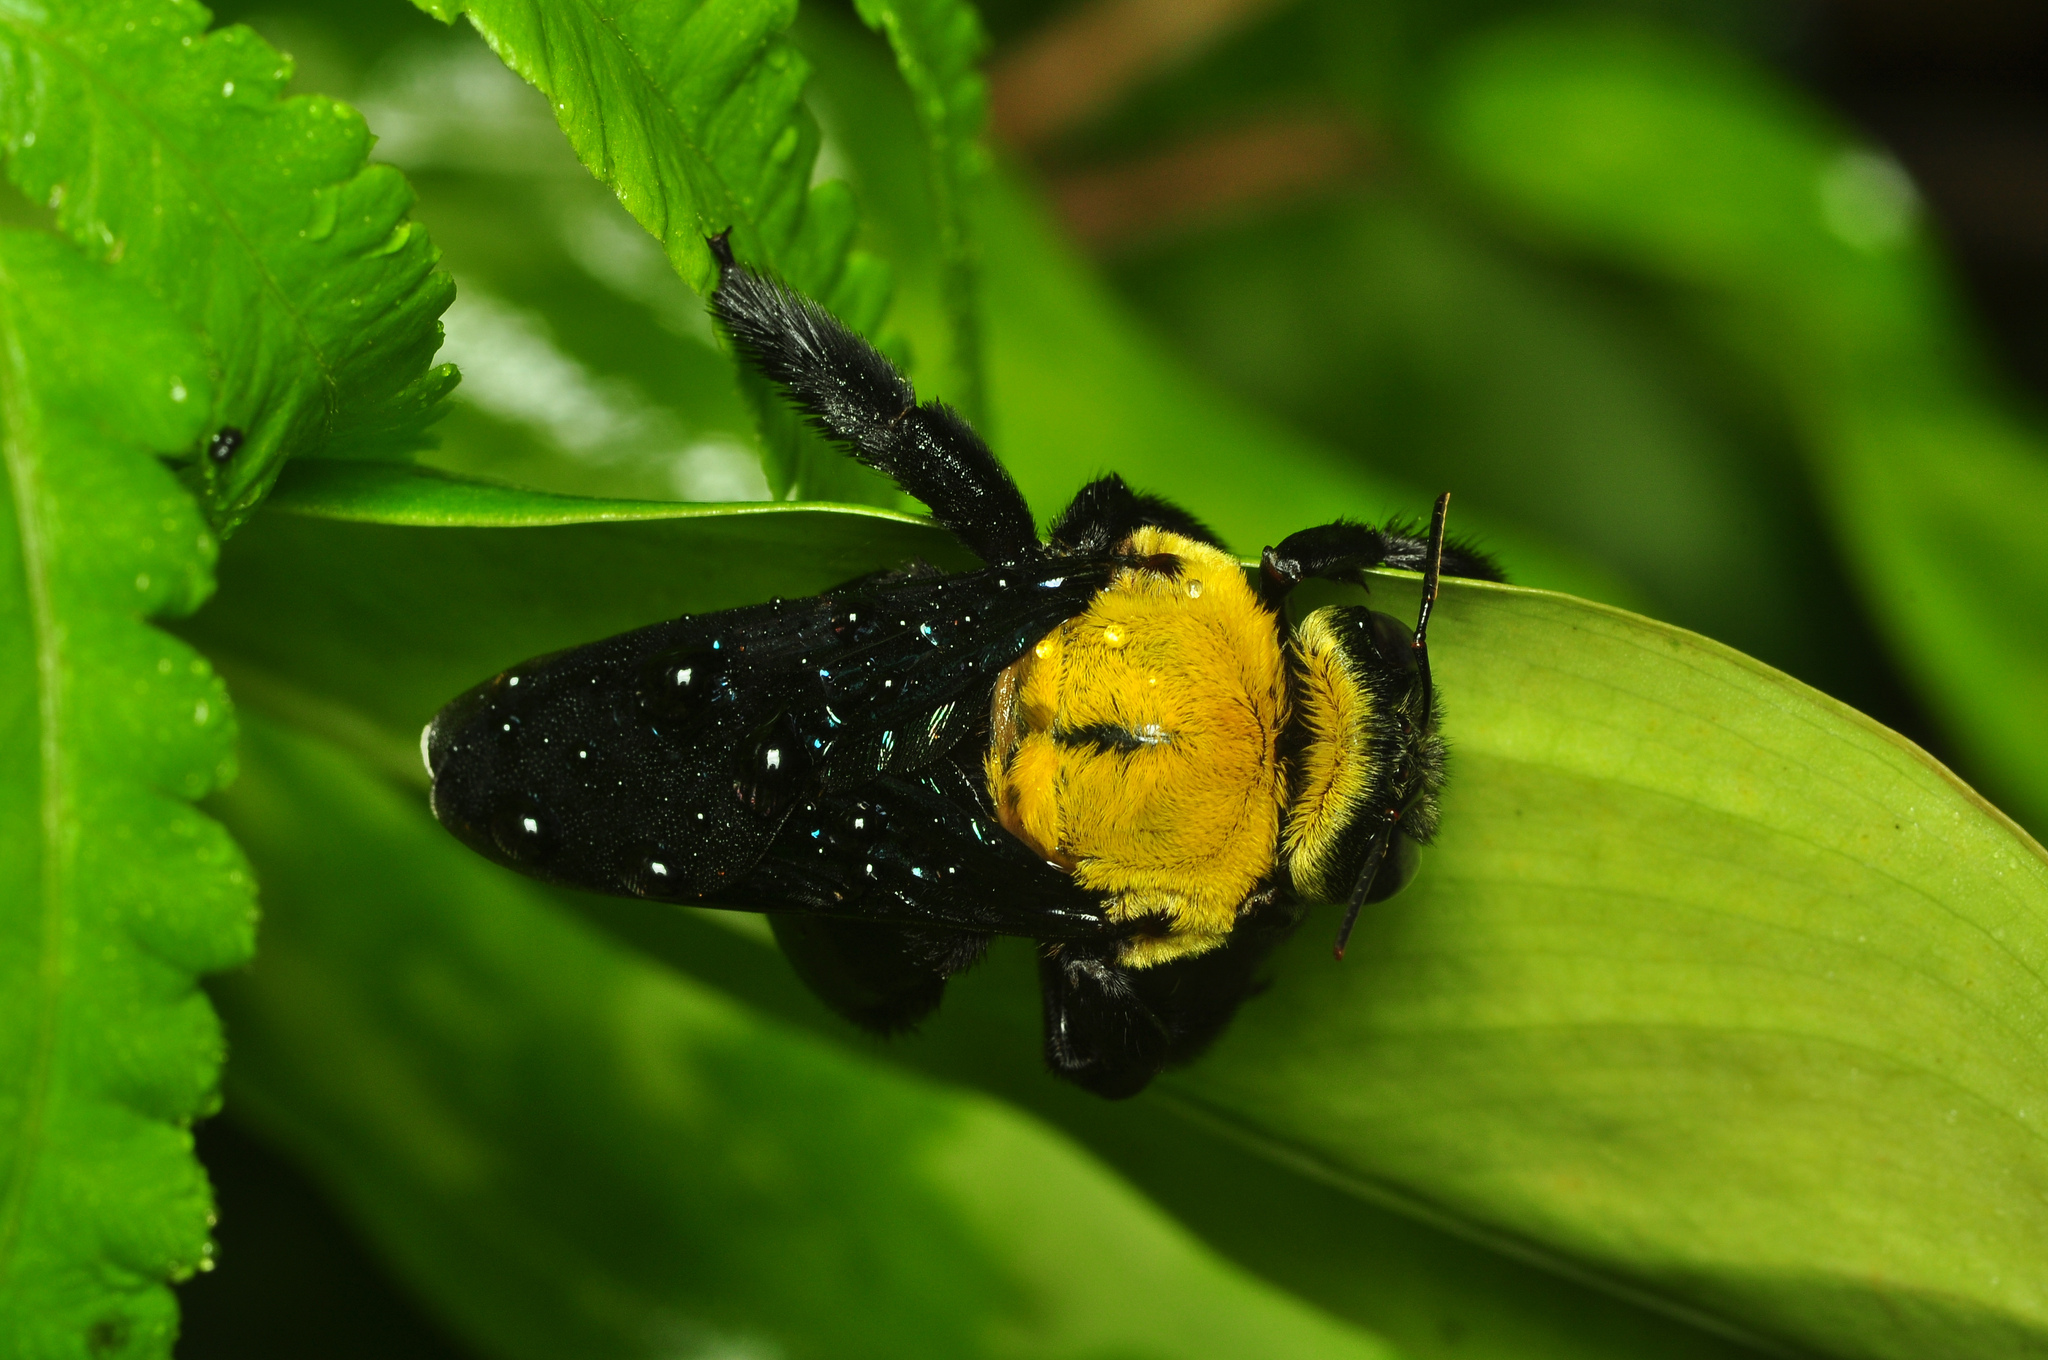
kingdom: Animalia
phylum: Arthropoda
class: Insecta
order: Hymenoptera
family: Apidae
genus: Xylocopa
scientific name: Xylocopa ruficornis
